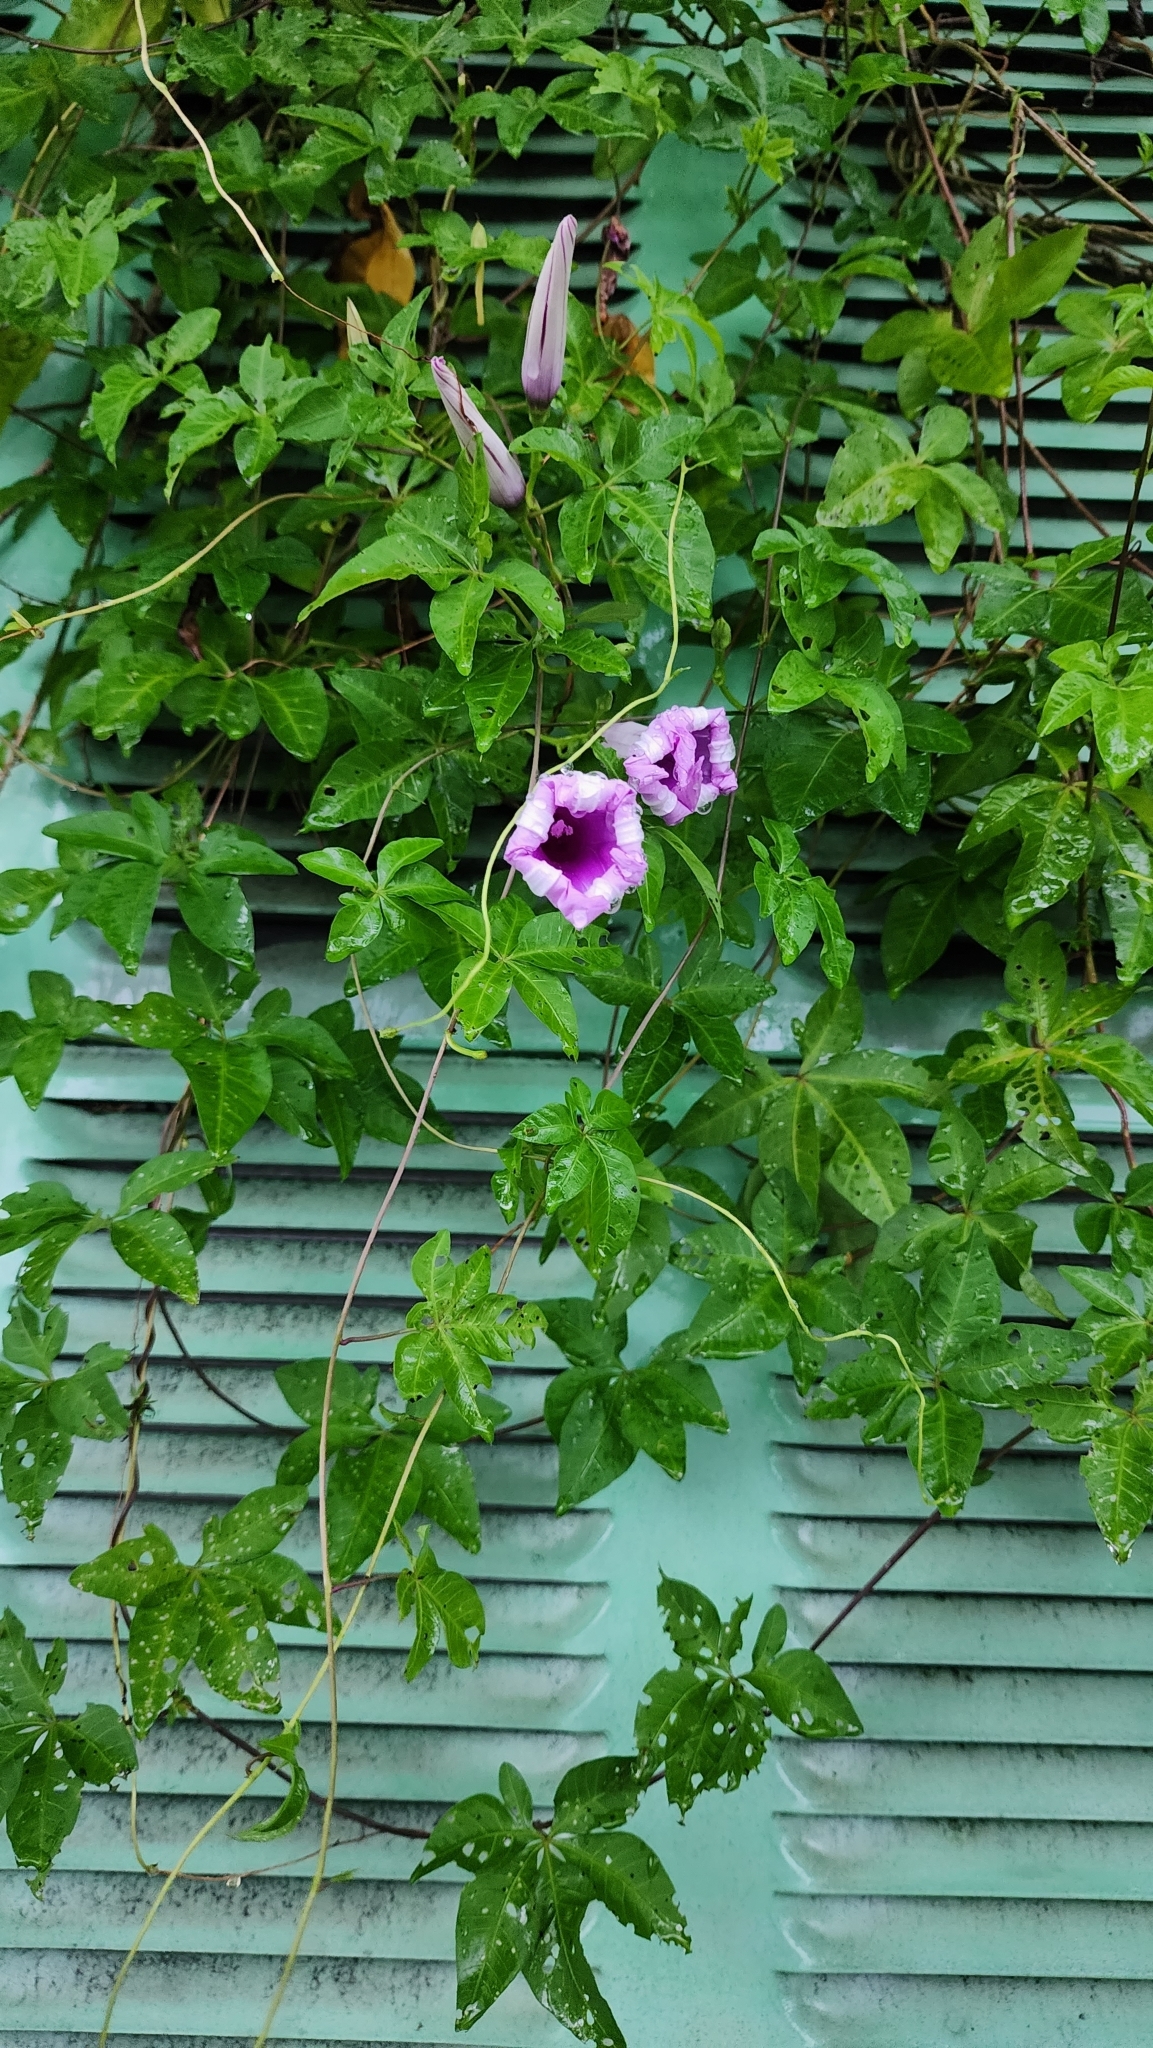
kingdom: Plantae
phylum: Tracheophyta
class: Magnoliopsida
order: Solanales
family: Convolvulaceae
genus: Ipomoea
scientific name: Ipomoea cairica
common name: Mile a minute vine
